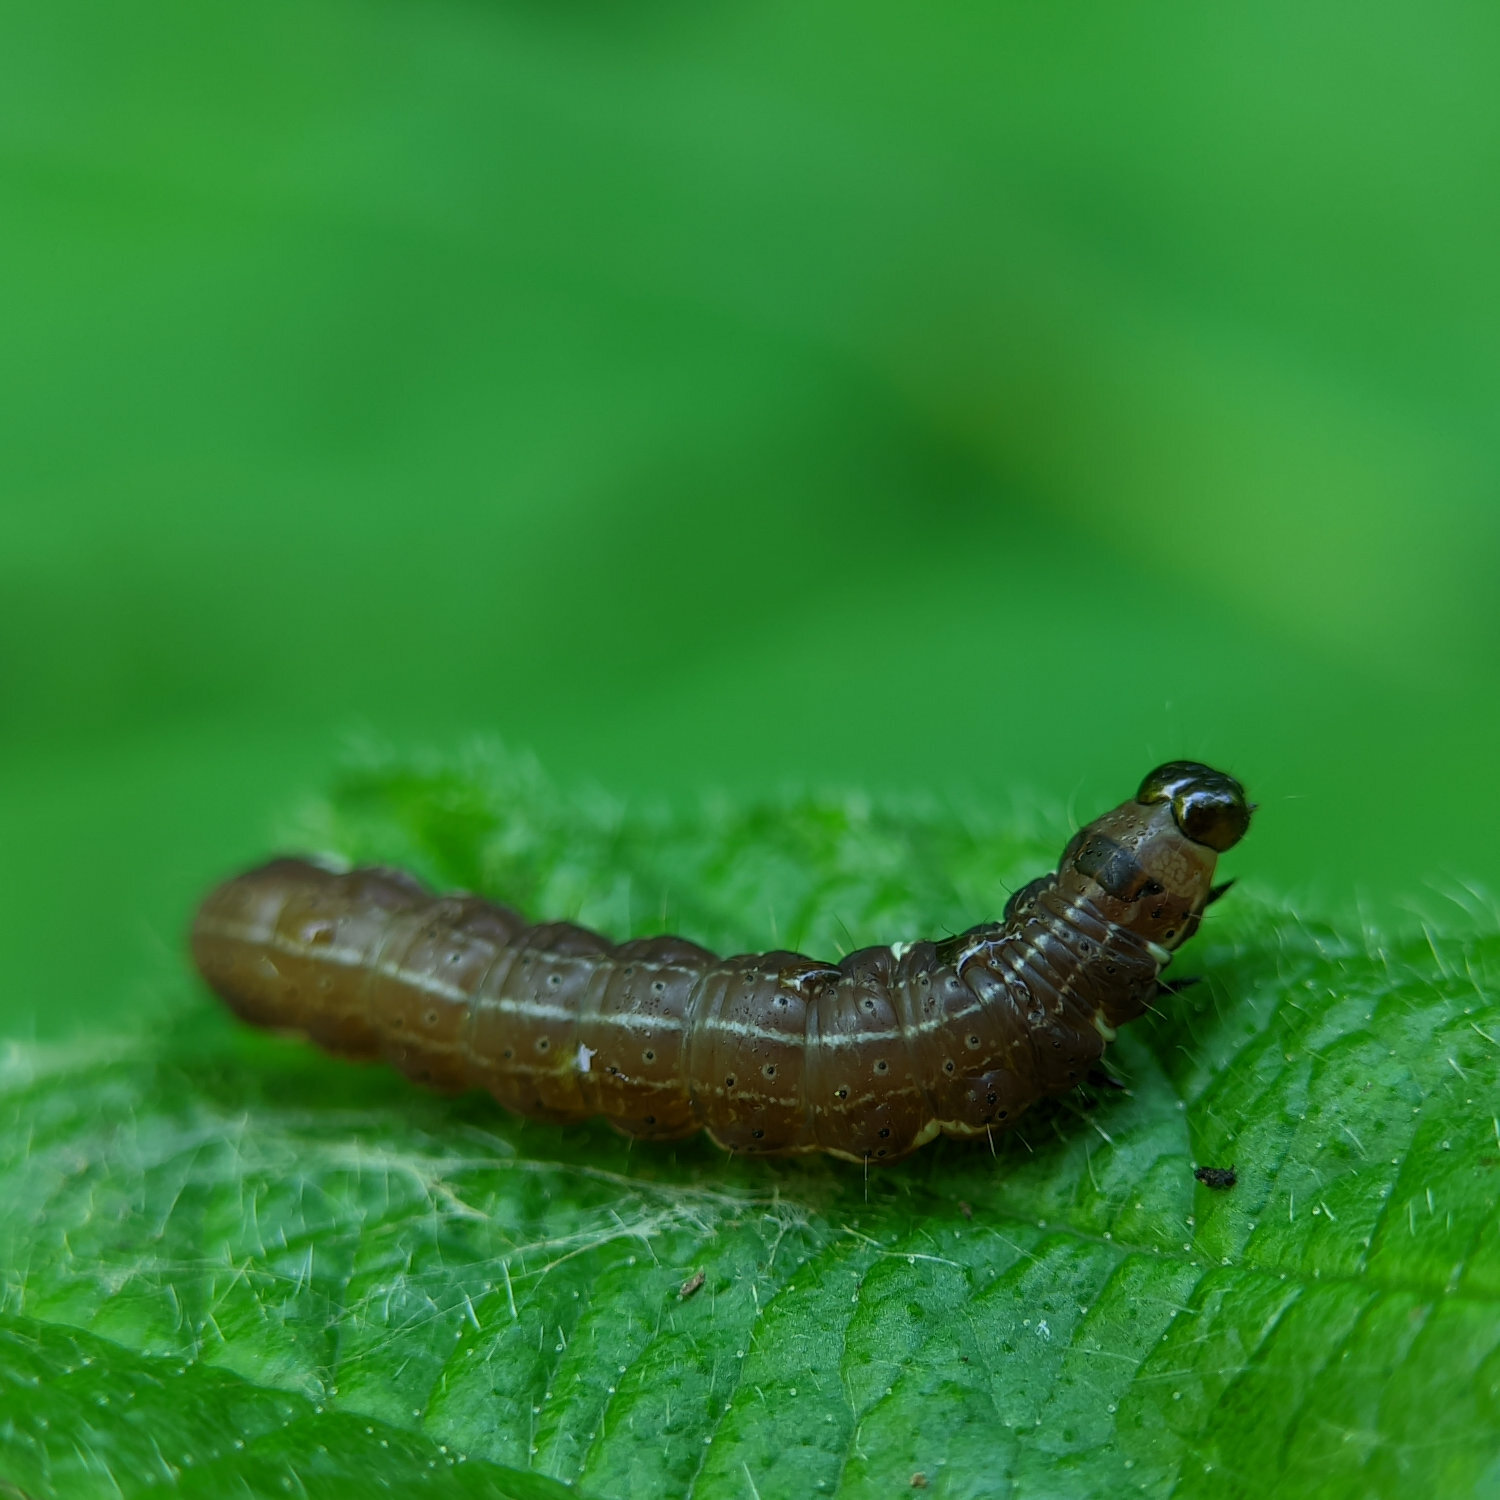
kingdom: Animalia
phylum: Arthropoda
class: Insecta
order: Lepidoptera
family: Noctuidae
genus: Eupsilia
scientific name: Eupsilia transversa
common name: Satellite
